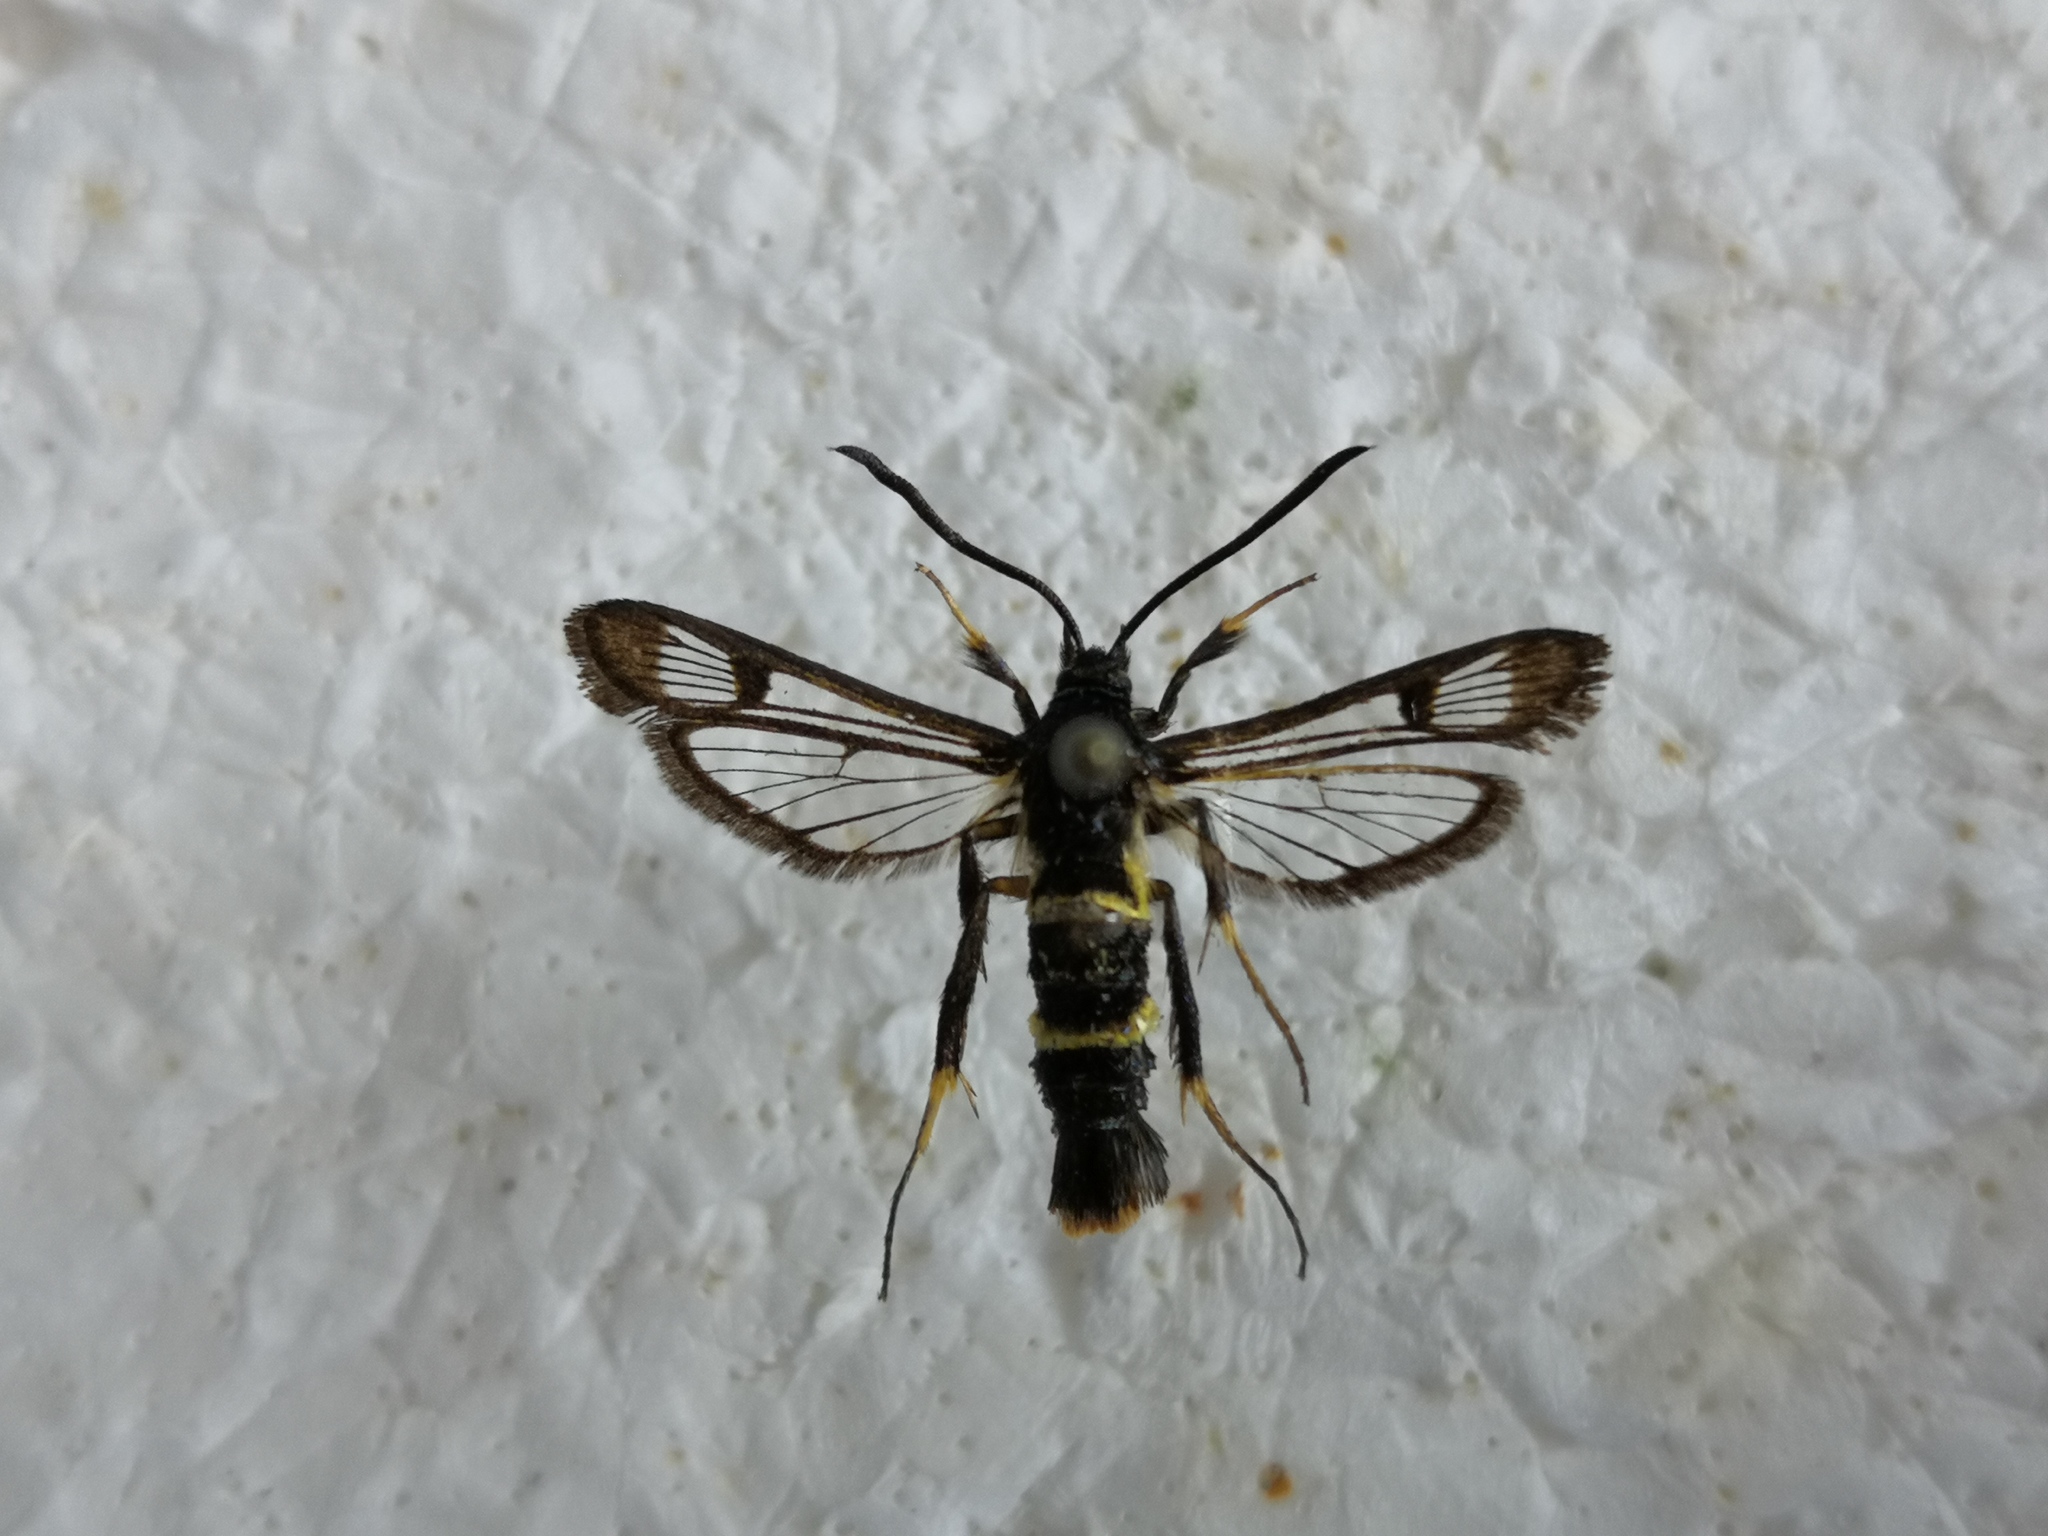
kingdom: Animalia
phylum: Arthropoda
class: Insecta
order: Lepidoptera
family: Sesiidae
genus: Synanthedon
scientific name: Synanthedon andrenaeformis
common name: Orange-tailed clearwing
